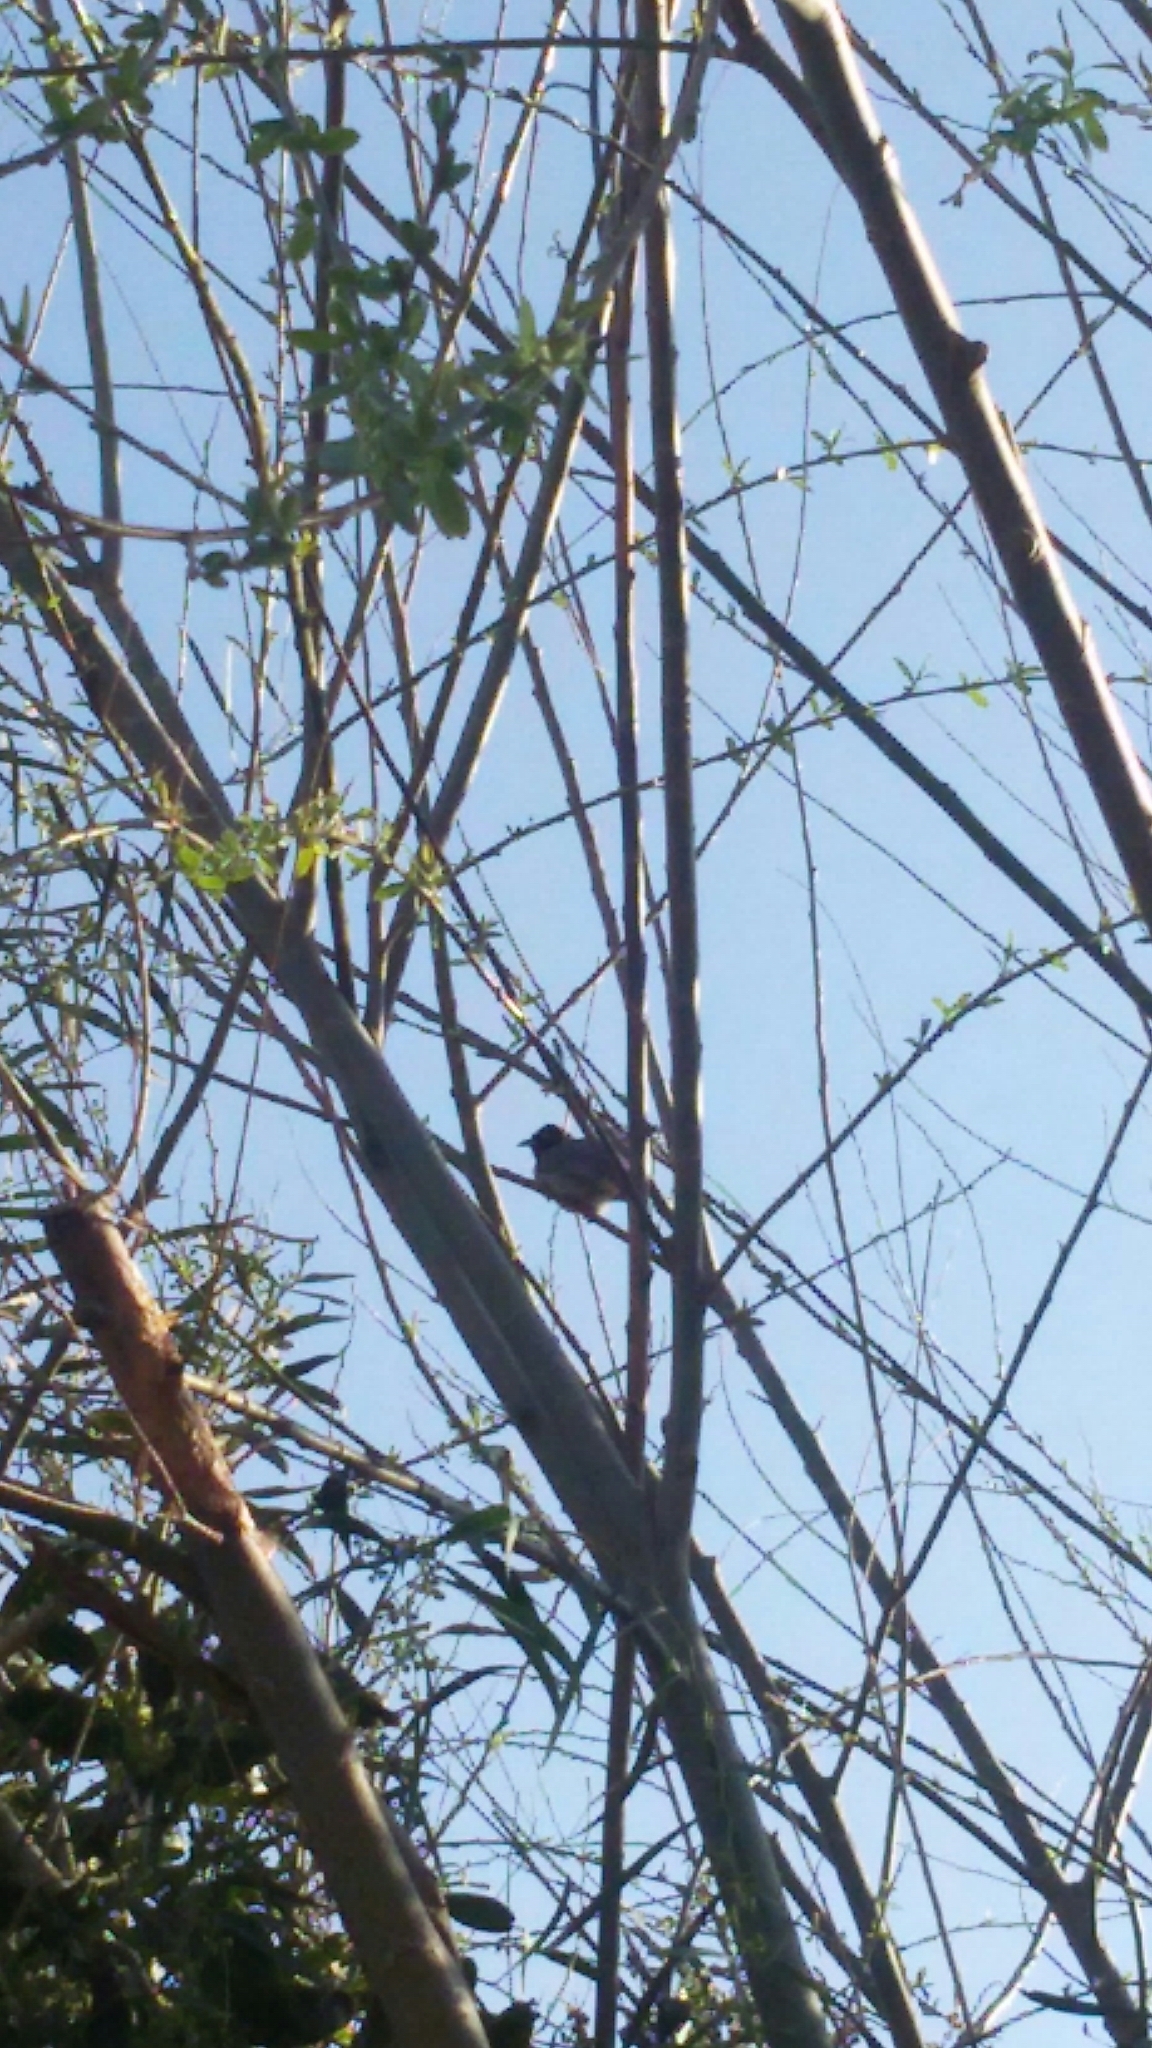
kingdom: Animalia
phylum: Chordata
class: Aves
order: Passeriformes
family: Pycnonotidae
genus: Pycnonotus
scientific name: Pycnonotus xanthopygos
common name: White-spectacled bulbul
